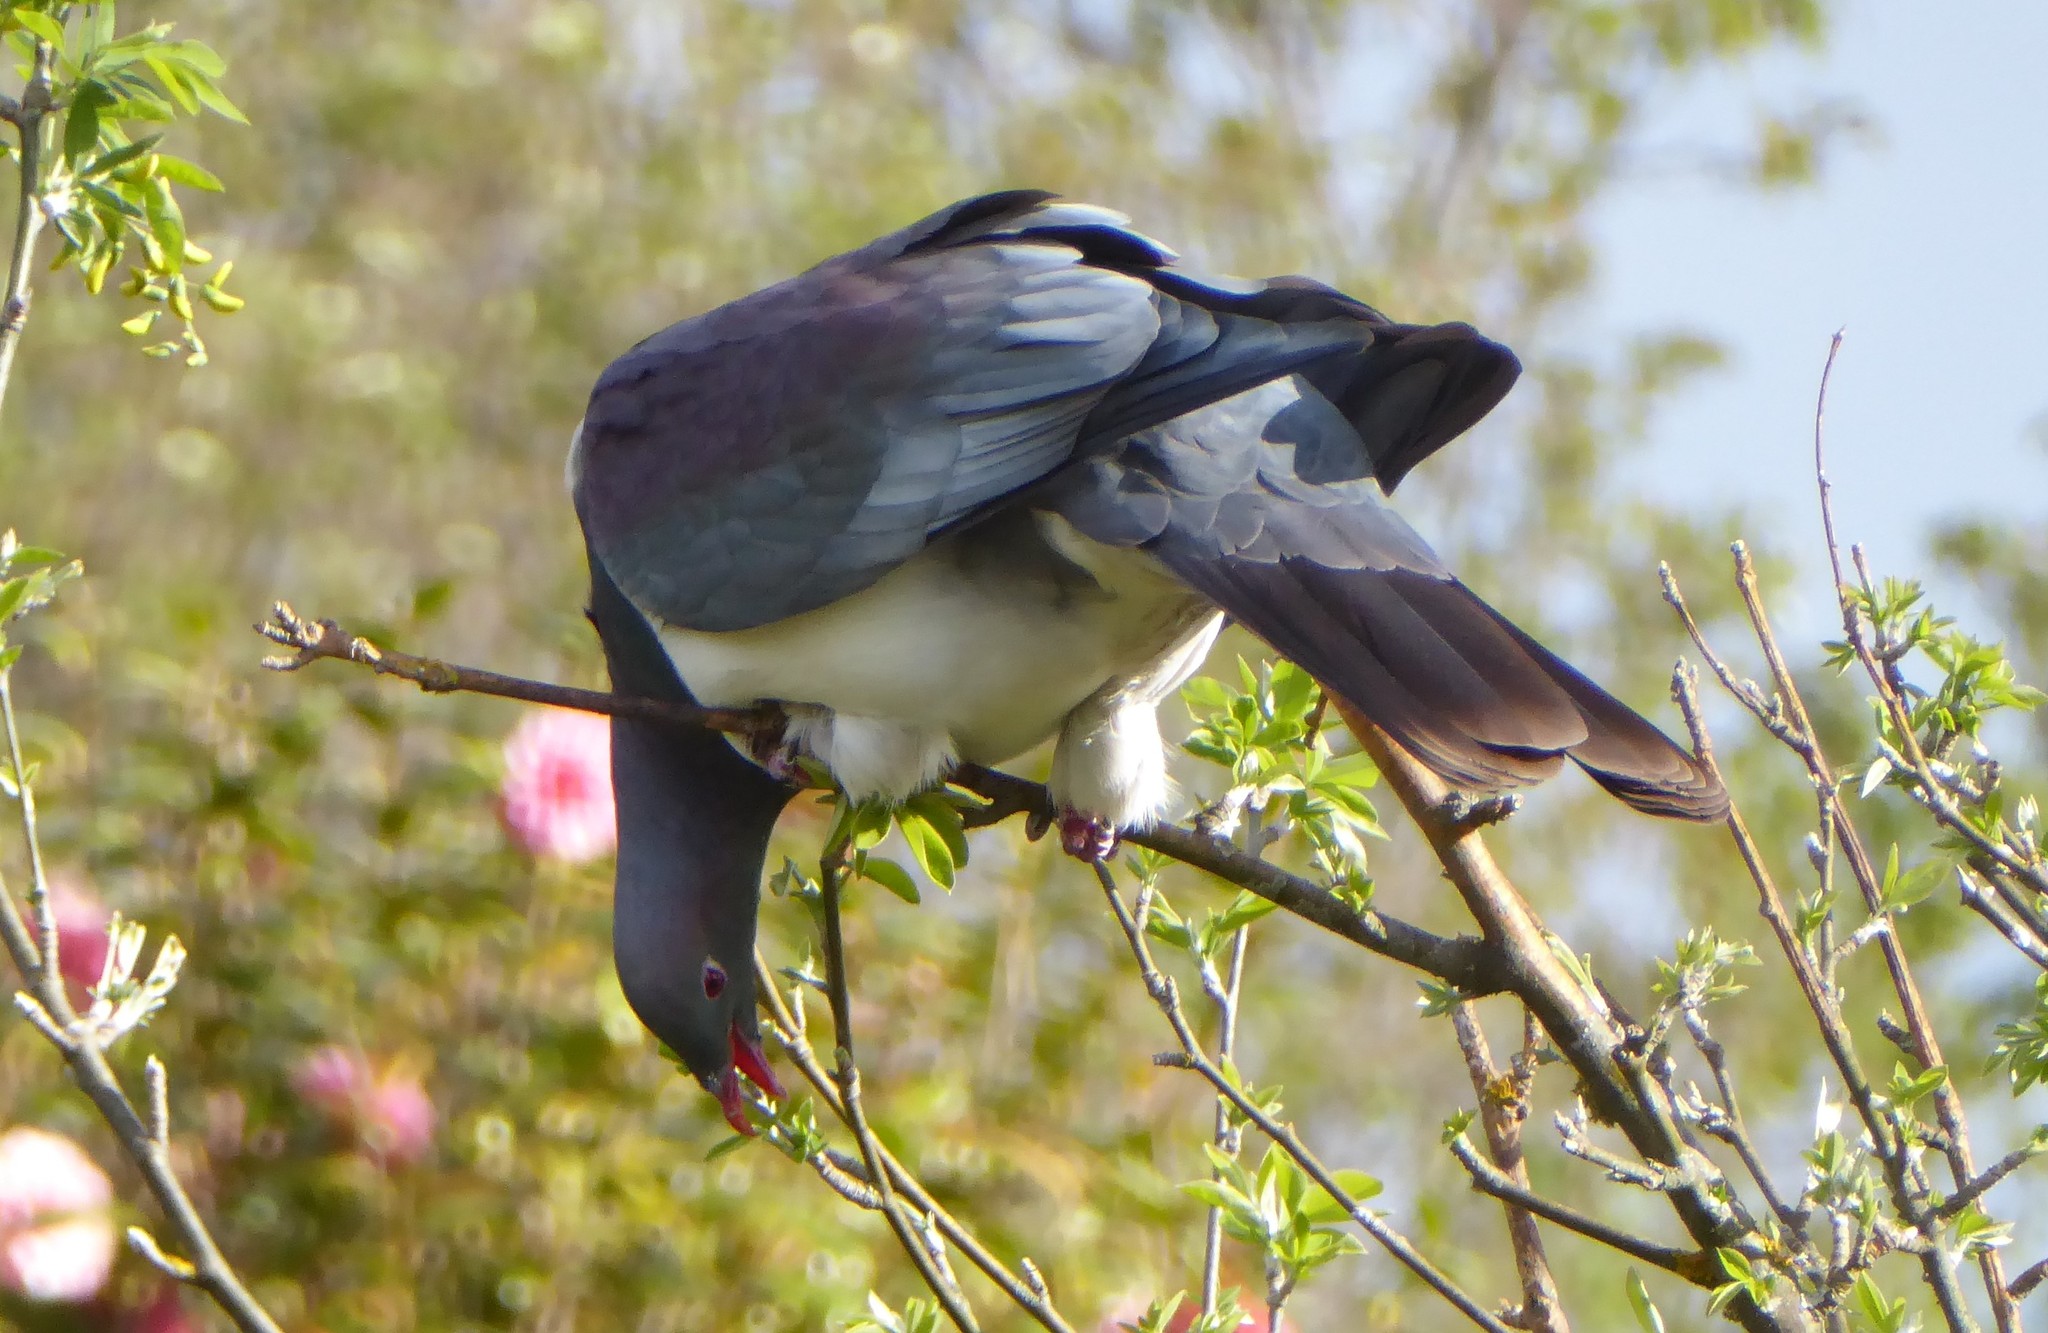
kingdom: Animalia
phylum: Chordata
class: Aves
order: Columbiformes
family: Columbidae
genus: Hemiphaga
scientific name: Hemiphaga novaeseelandiae
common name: New zealand pigeon
